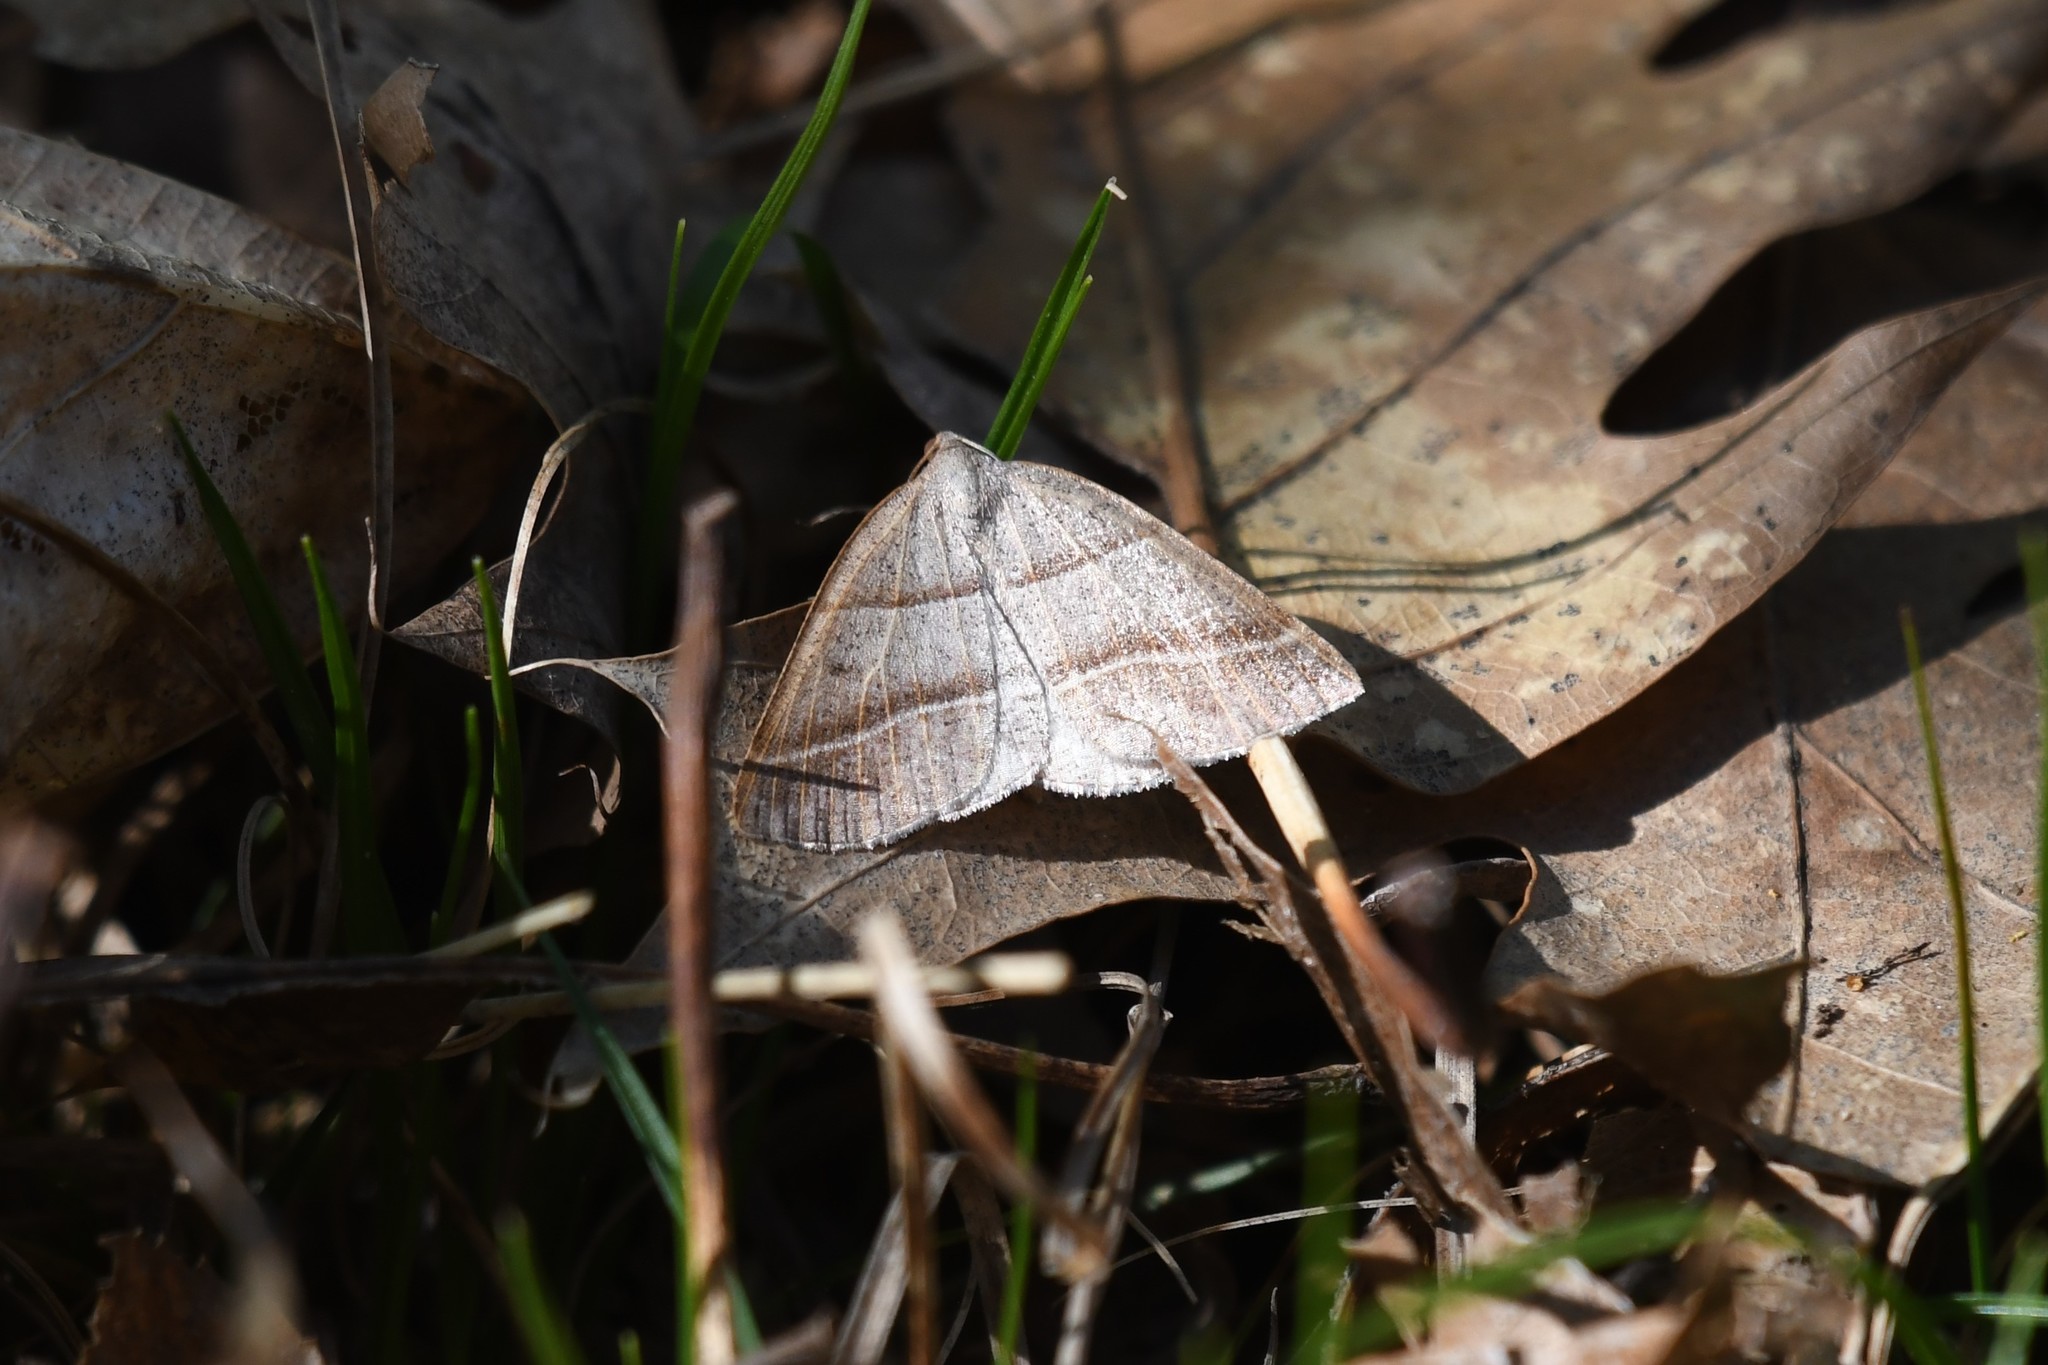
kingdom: Animalia
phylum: Arthropoda
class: Insecta
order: Lepidoptera
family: Pterophoridae
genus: Pterophorus
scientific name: Pterophorus Petrophora subaequaria
